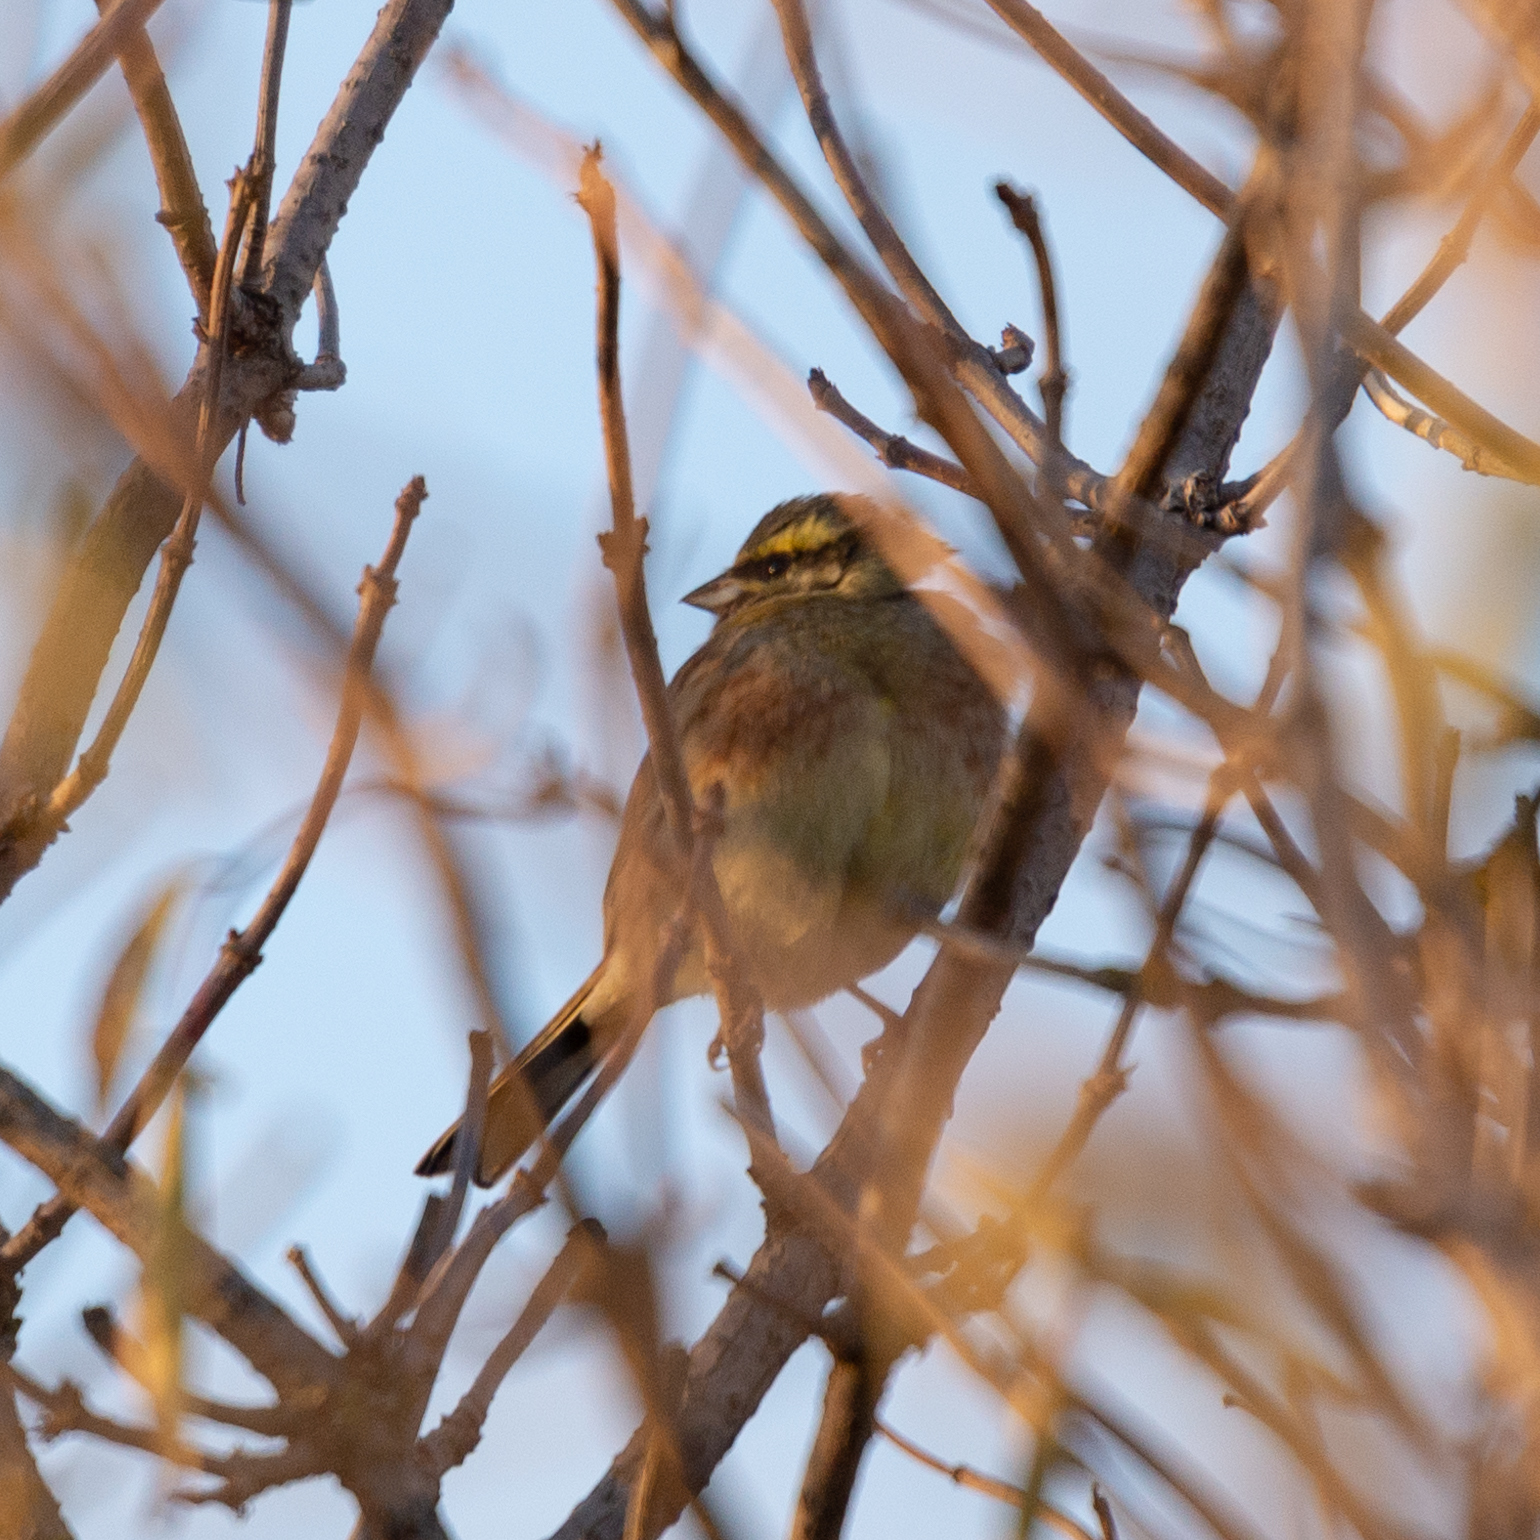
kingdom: Animalia
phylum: Chordata
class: Aves
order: Passeriformes
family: Emberizidae
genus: Emberiza
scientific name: Emberiza cirlus
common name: Cirl bunting
